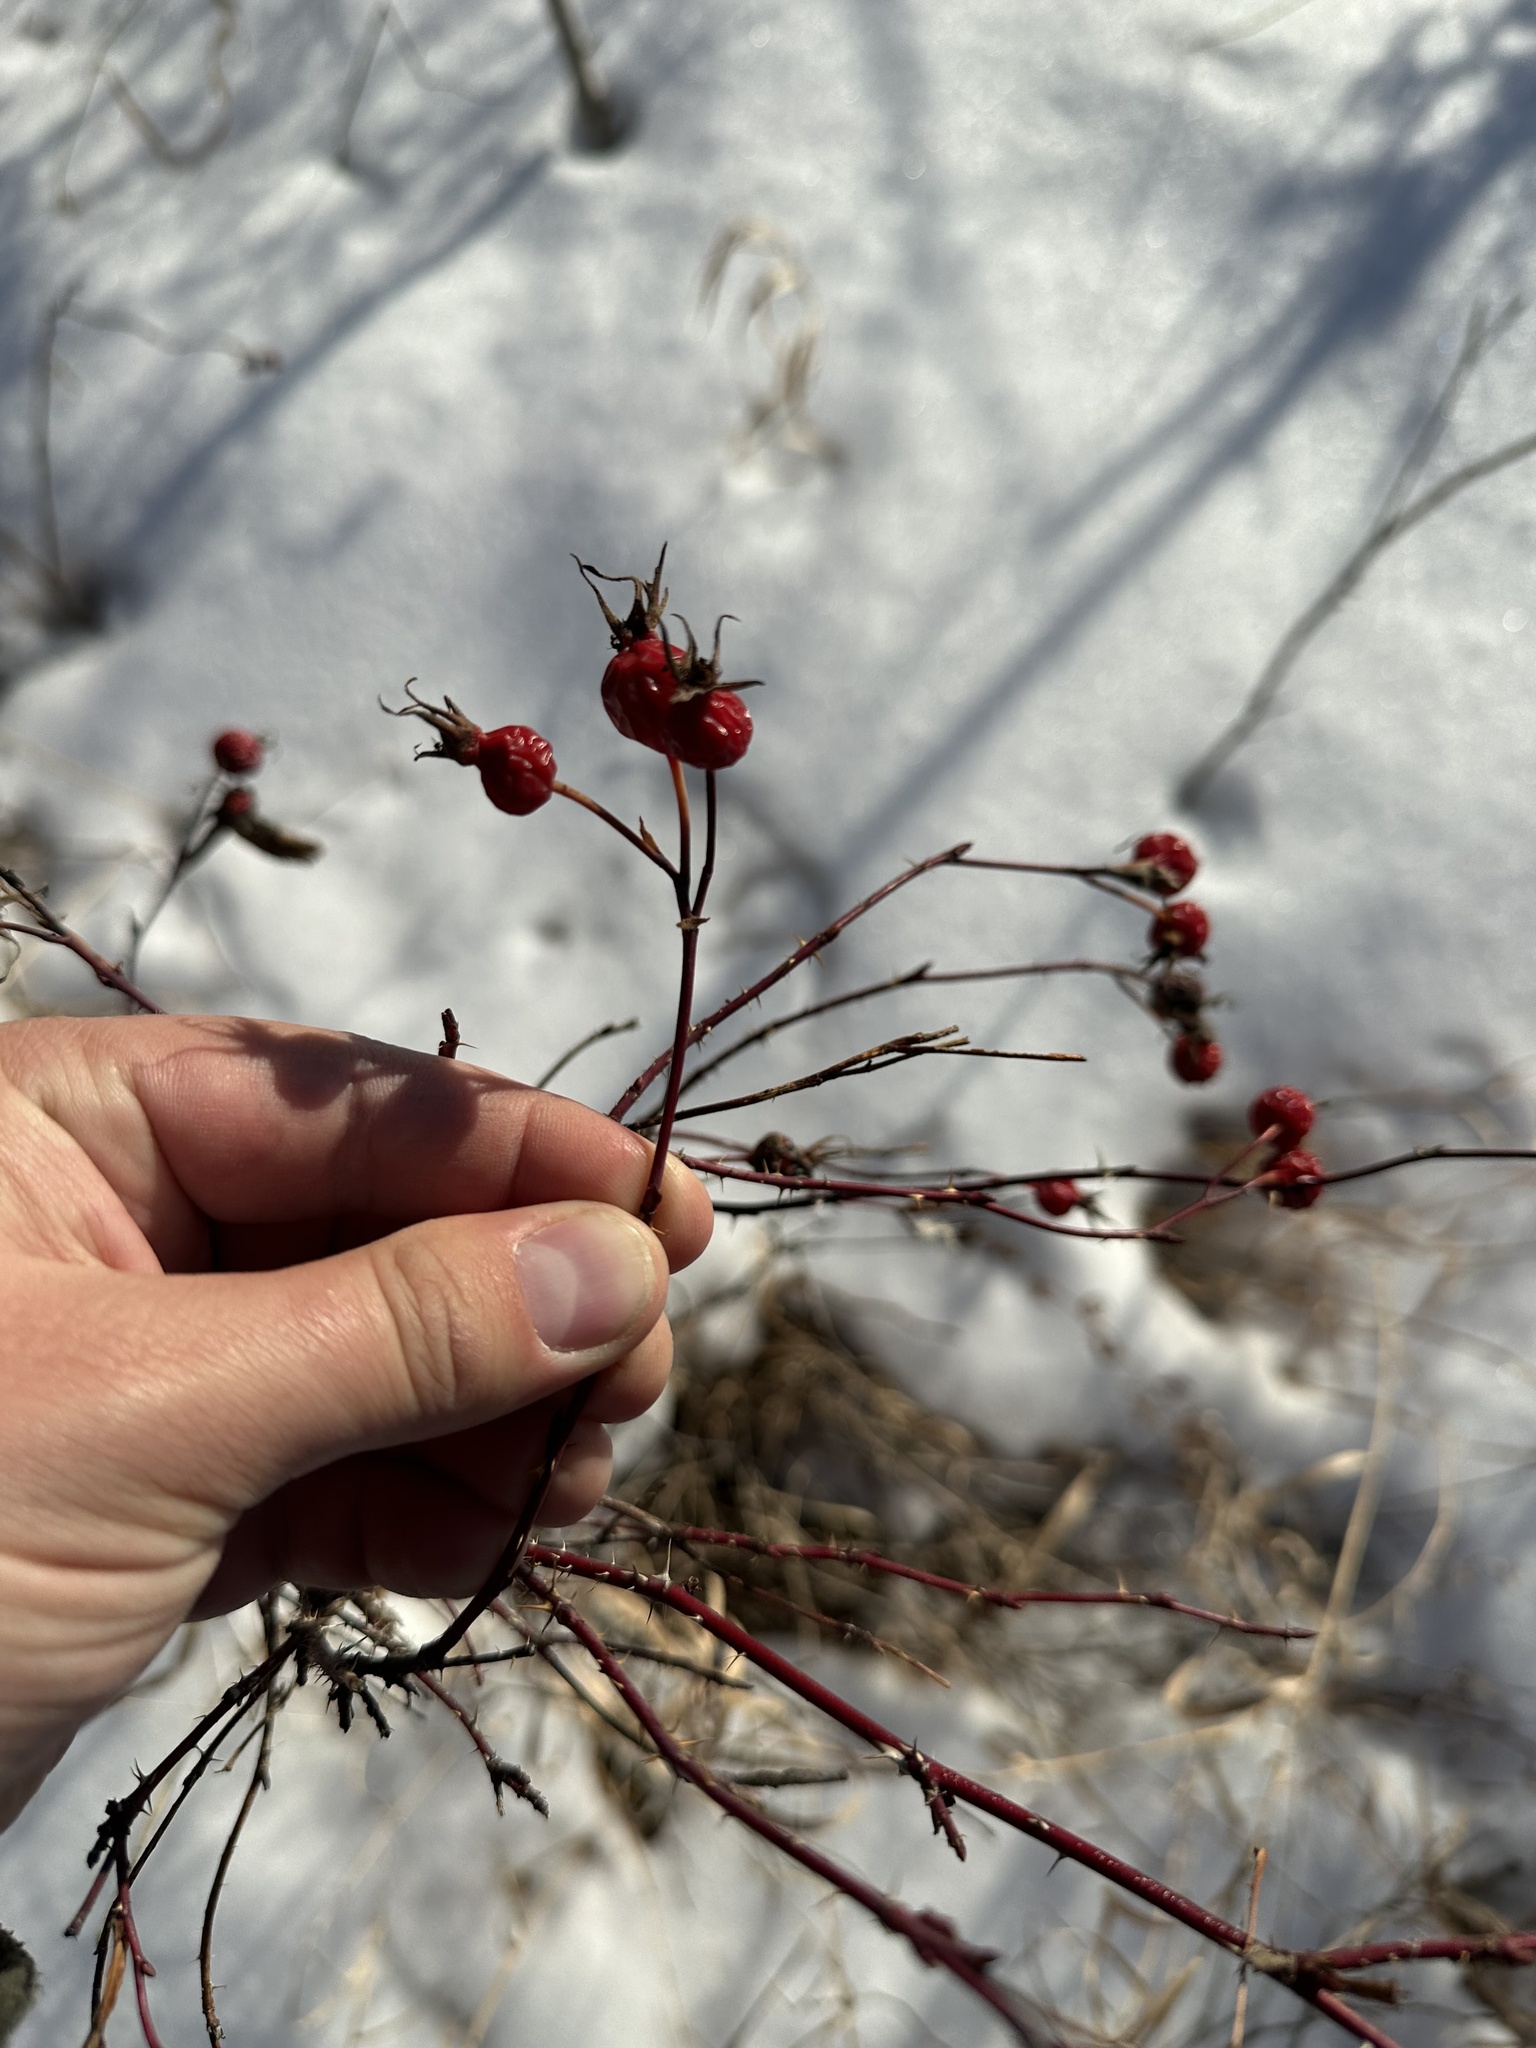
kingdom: Plantae
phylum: Tracheophyta
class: Magnoliopsida
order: Rosales
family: Rosaceae
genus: Rosa
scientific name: Rosa woodsii
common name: Woods's rose
